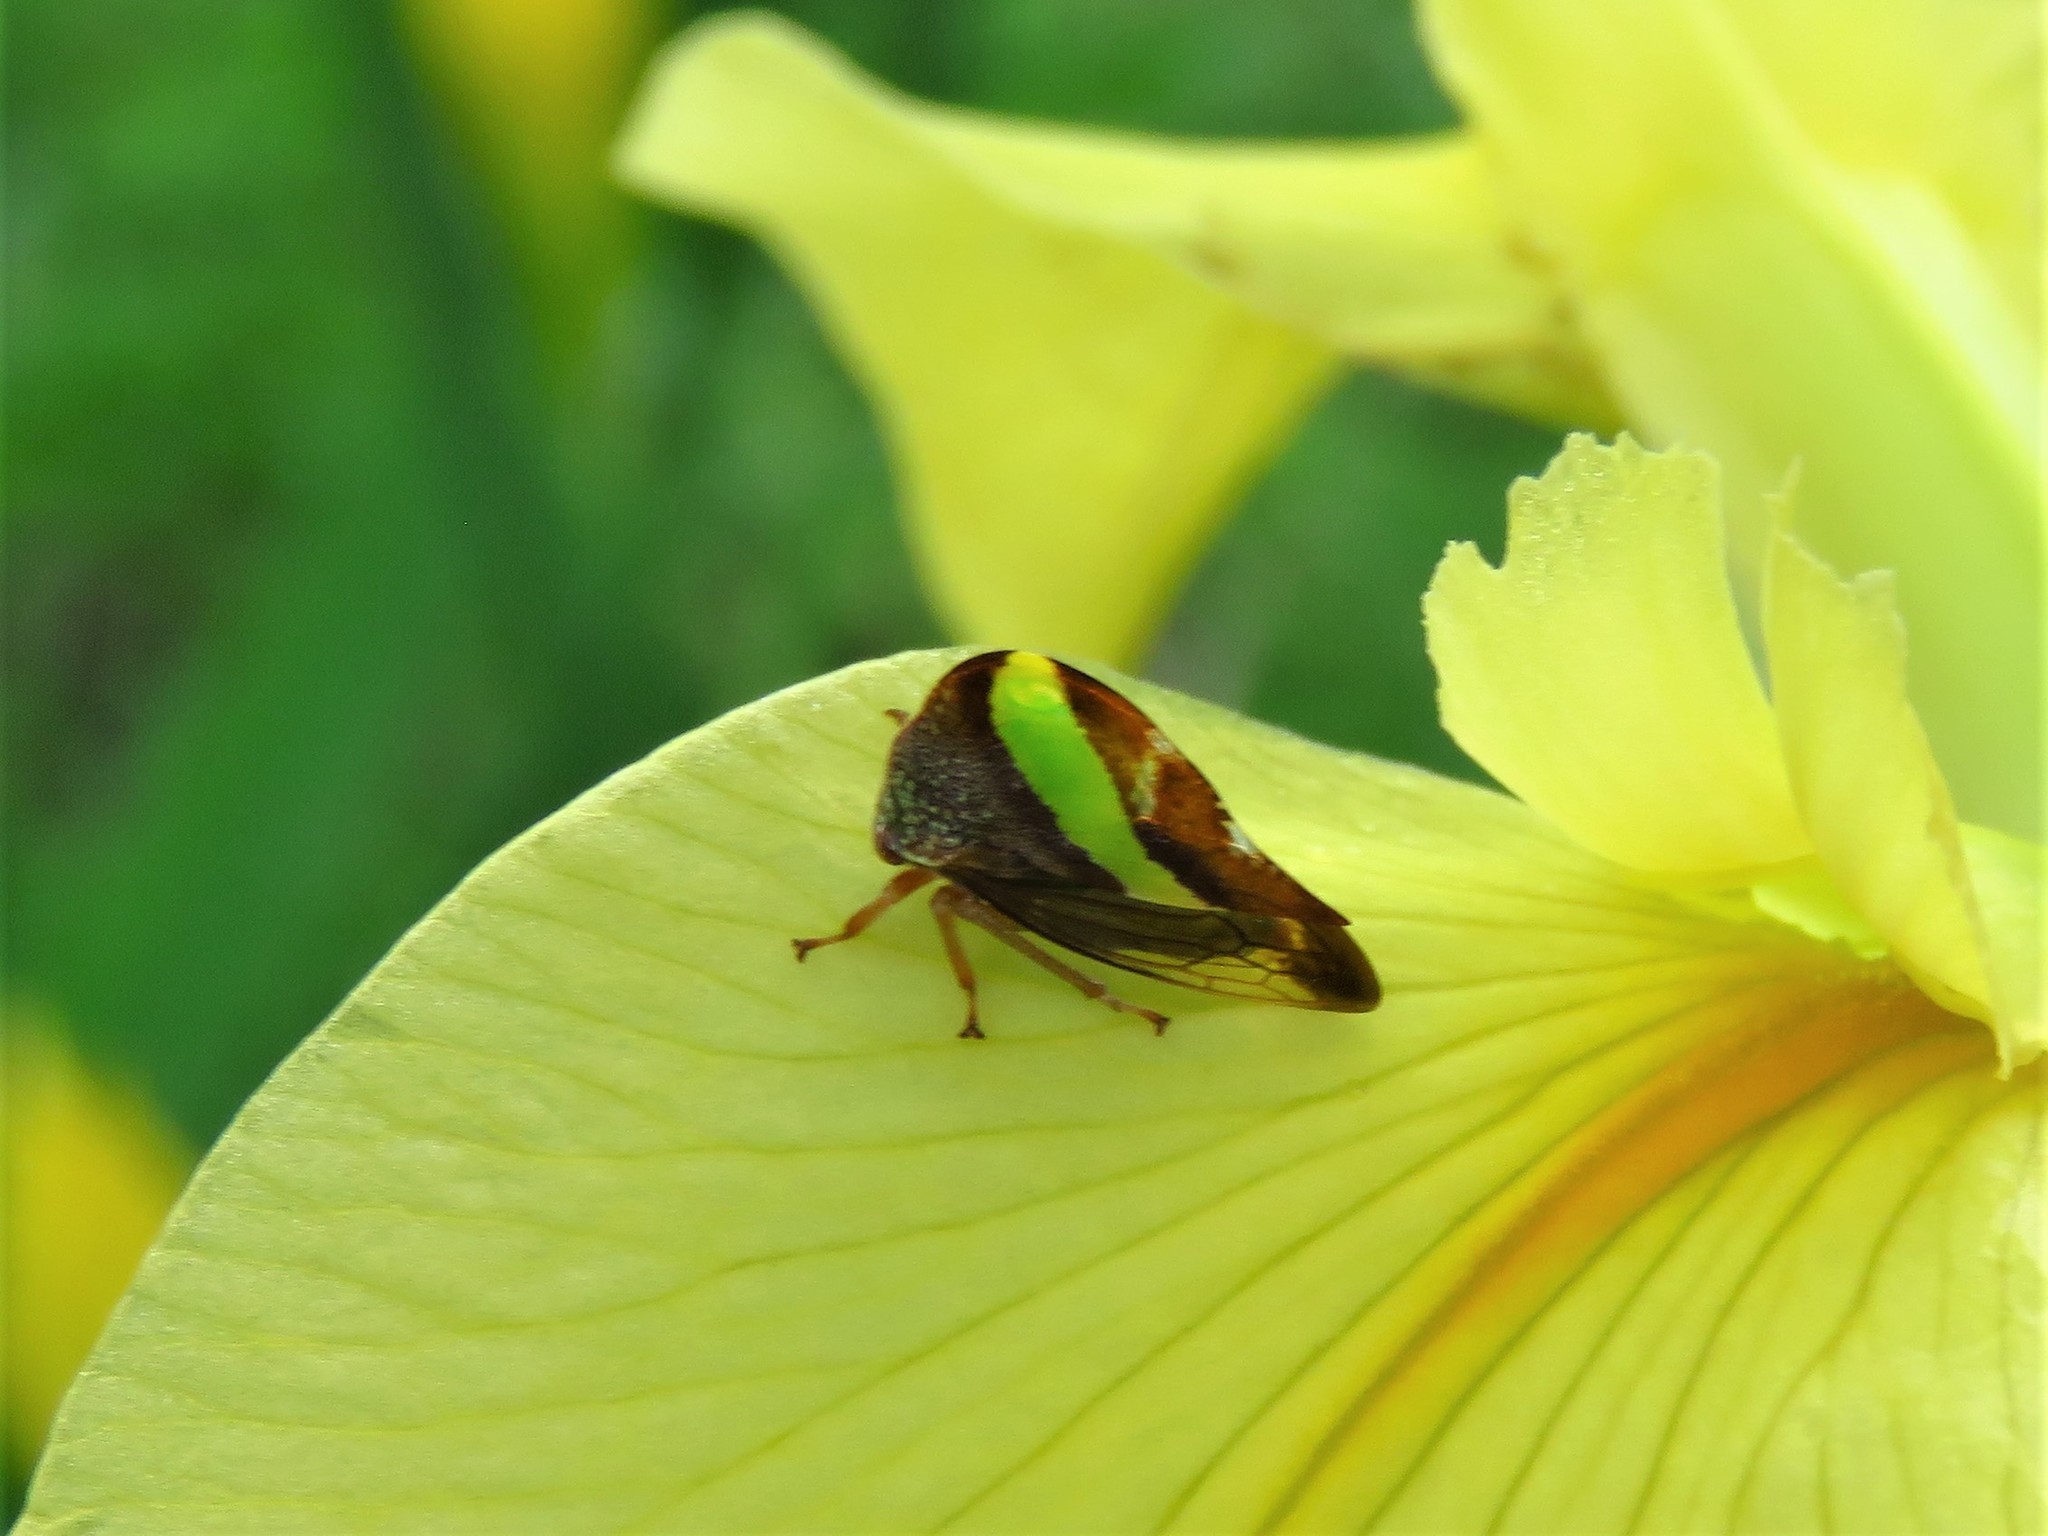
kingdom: Animalia
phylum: Arthropoda
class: Insecta
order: Hemiptera
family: Membracidae
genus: Smilia
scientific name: Smilia camelus
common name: Camel treehopper
